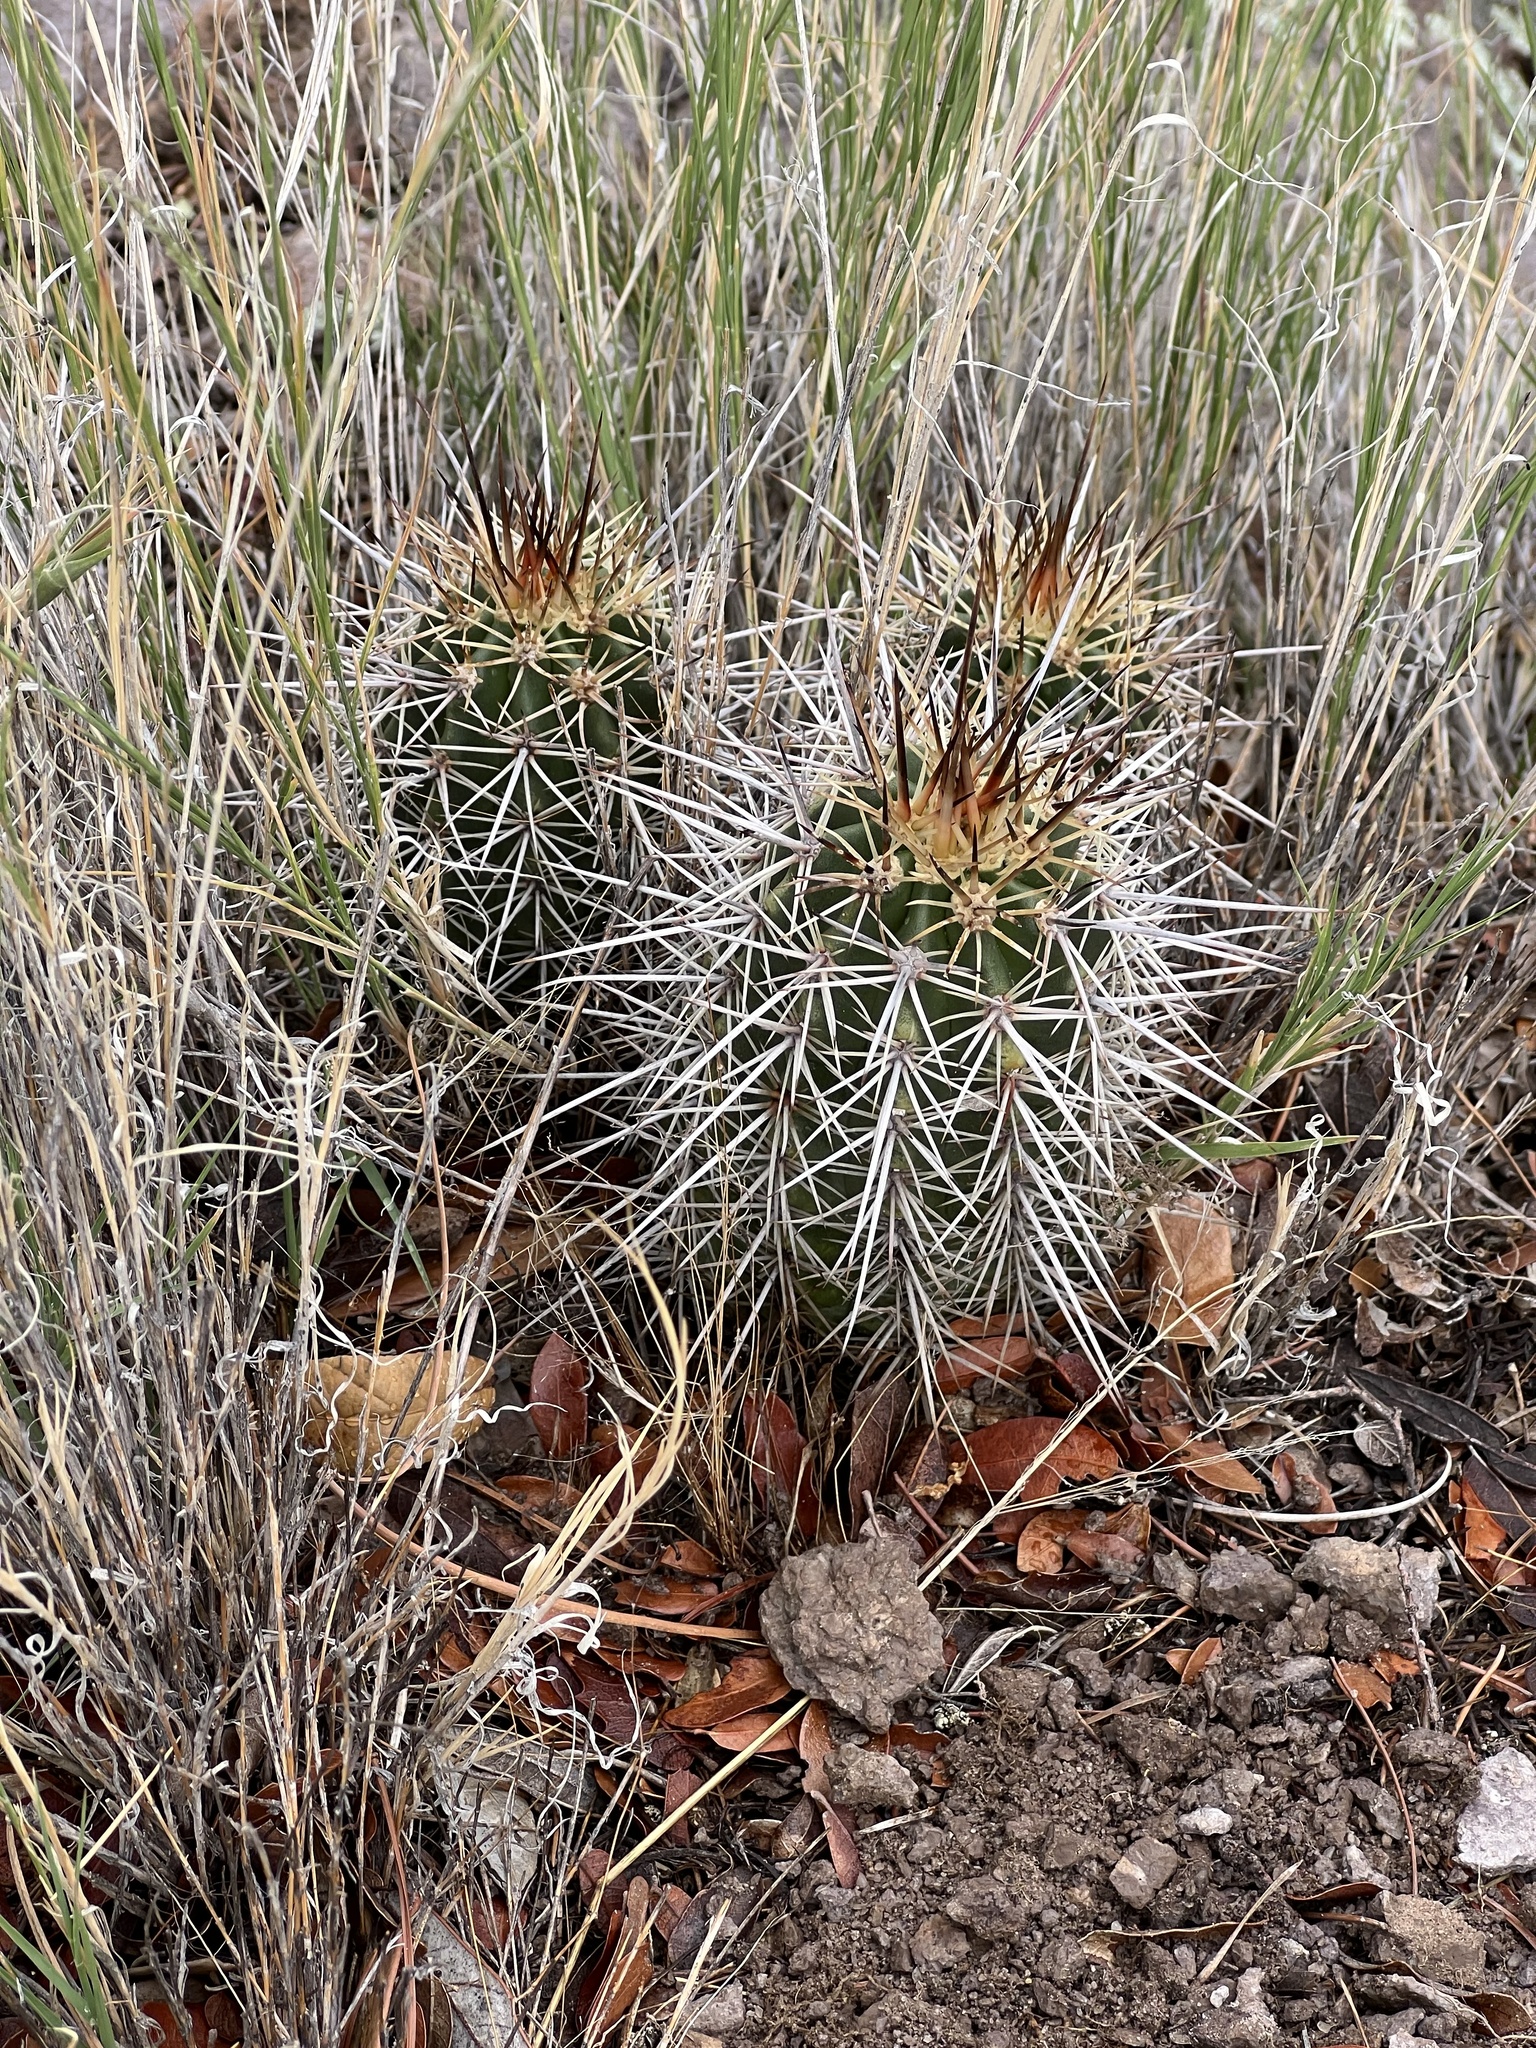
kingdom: Plantae
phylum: Tracheophyta
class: Magnoliopsida
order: Caryophyllales
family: Cactaceae
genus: Echinocereus
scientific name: Echinocereus arizonicus
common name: Arizona hedgehog cactus
